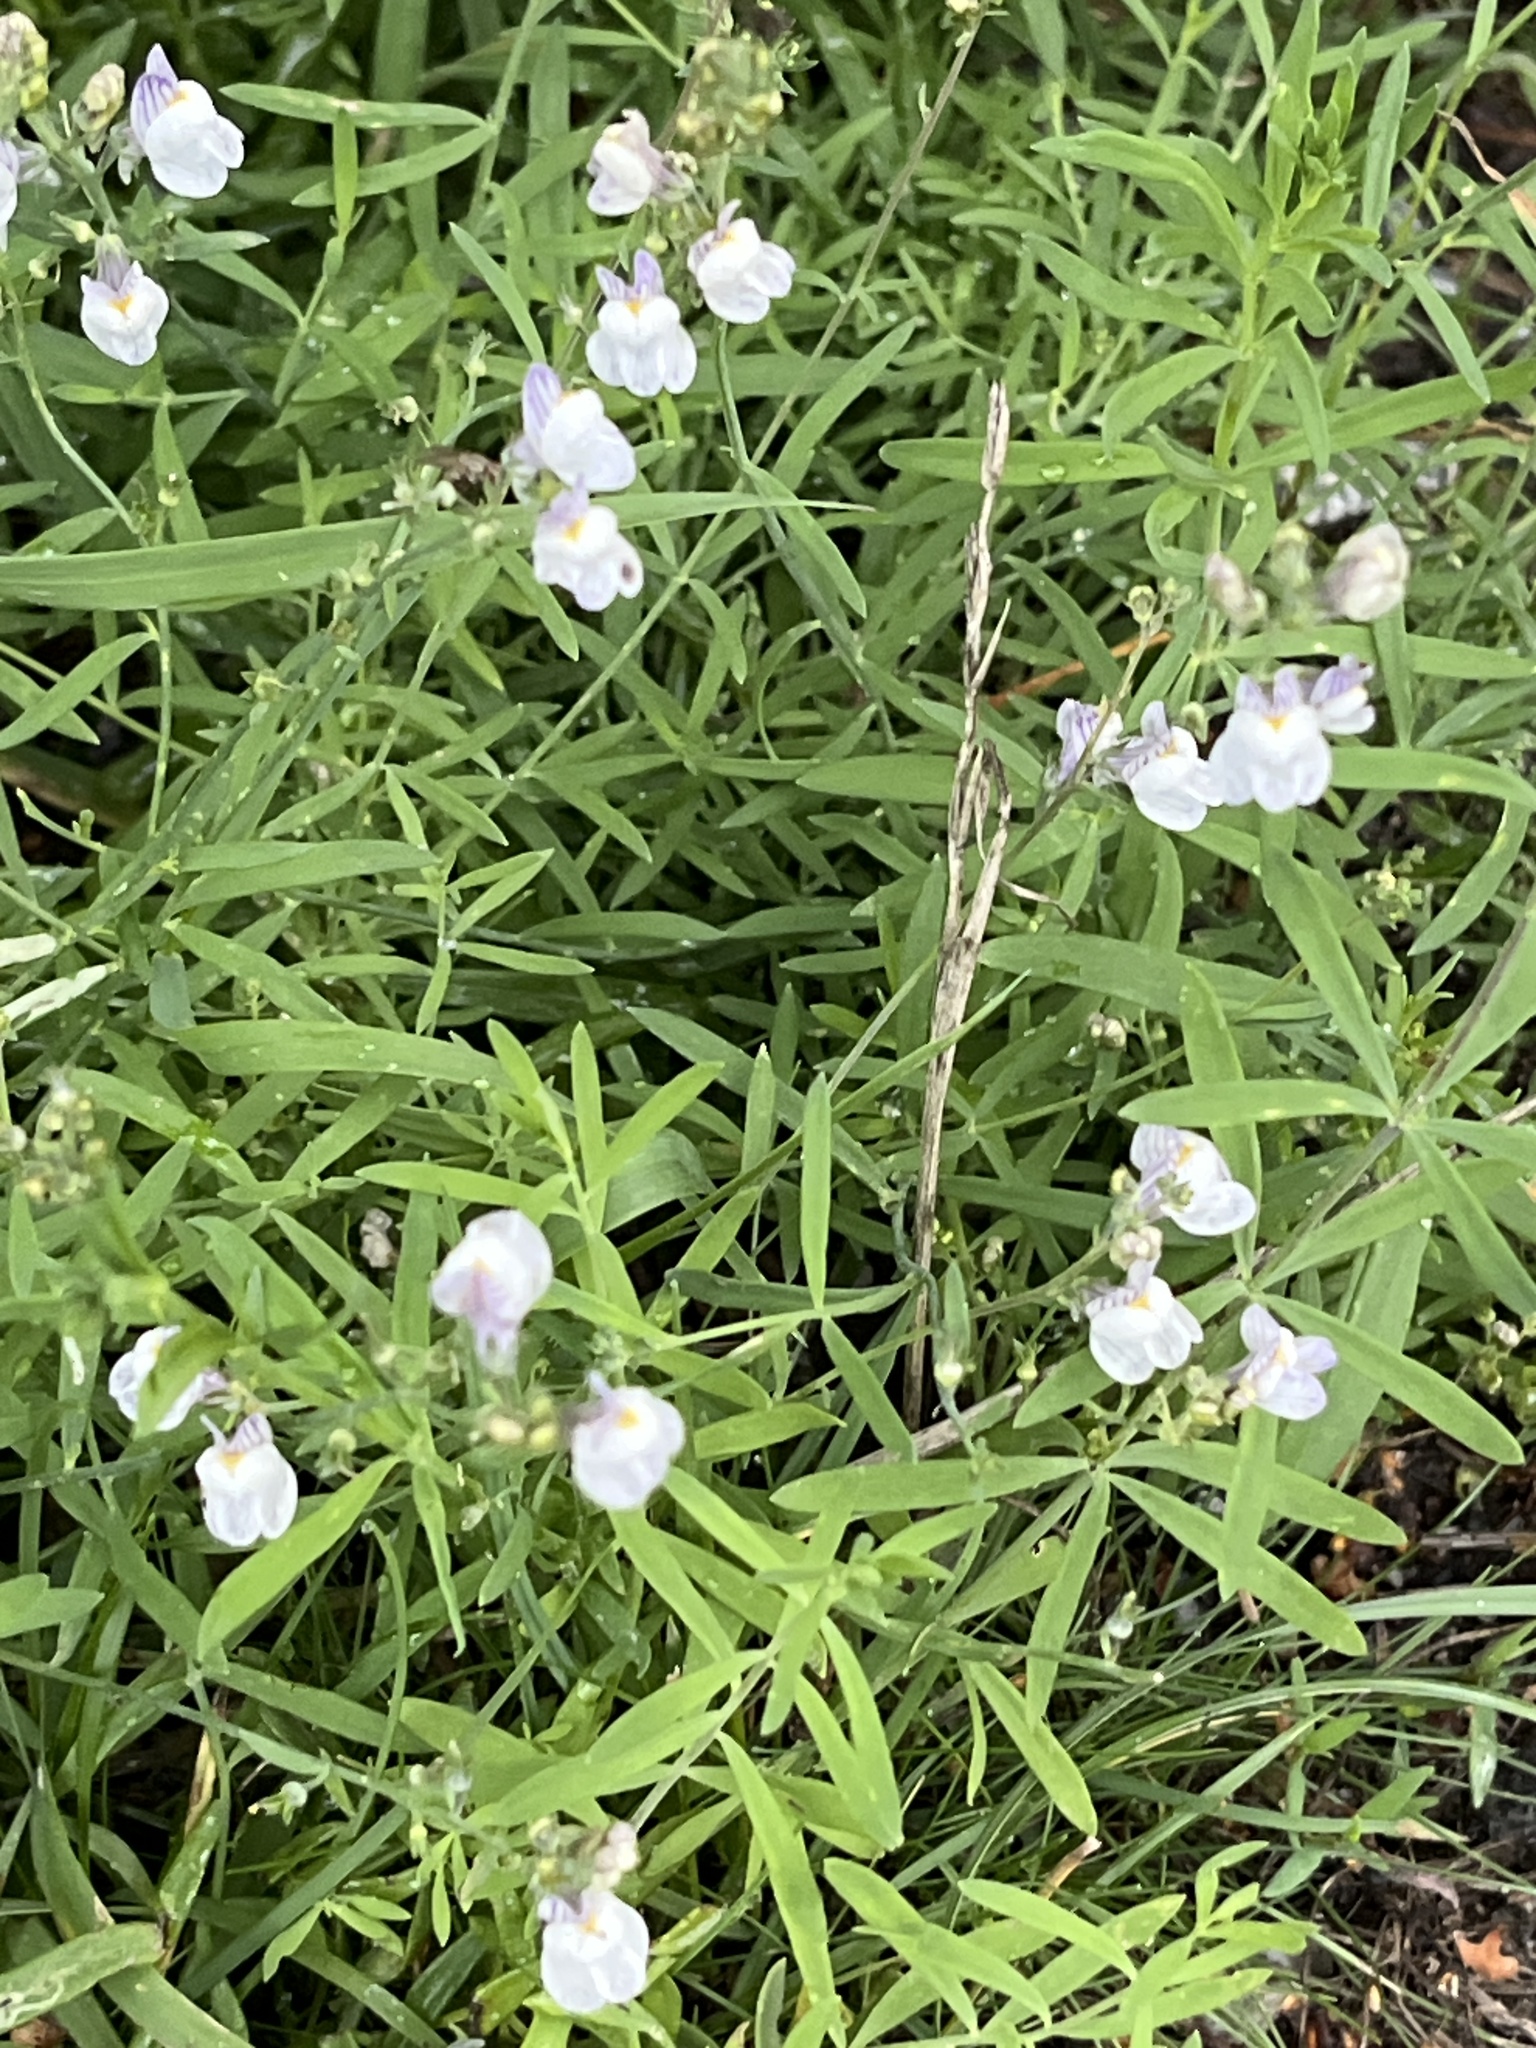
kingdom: Plantae
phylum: Tracheophyta
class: Magnoliopsida
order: Lamiales
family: Plantaginaceae
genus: Linaria
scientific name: Linaria repens
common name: Pale toadflax
